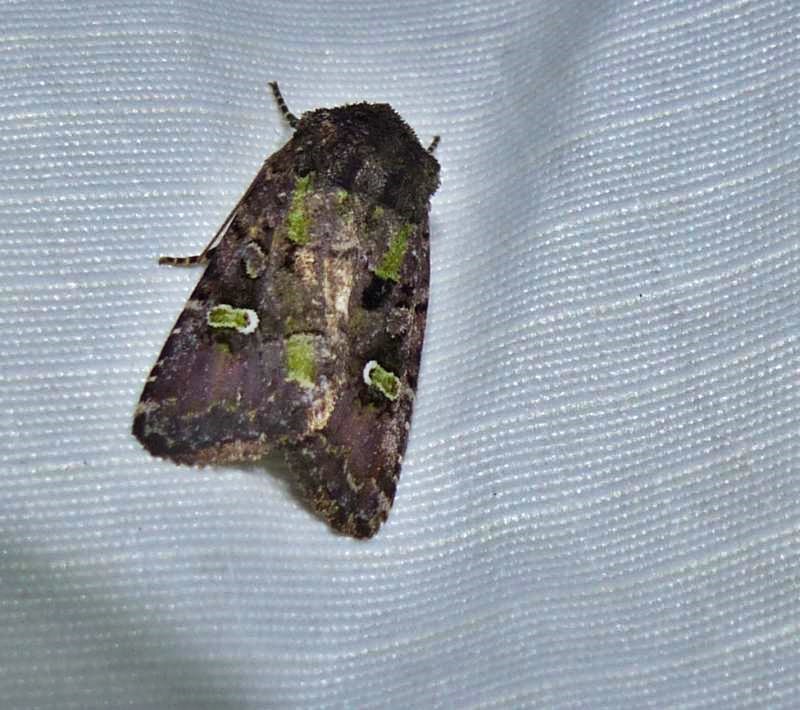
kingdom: Animalia
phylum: Arthropoda
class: Insecta
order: Lepidoptera
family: Noctuidae
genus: Lacinipolia
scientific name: Lacinipolia renigera
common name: Kidney-spotted minor
